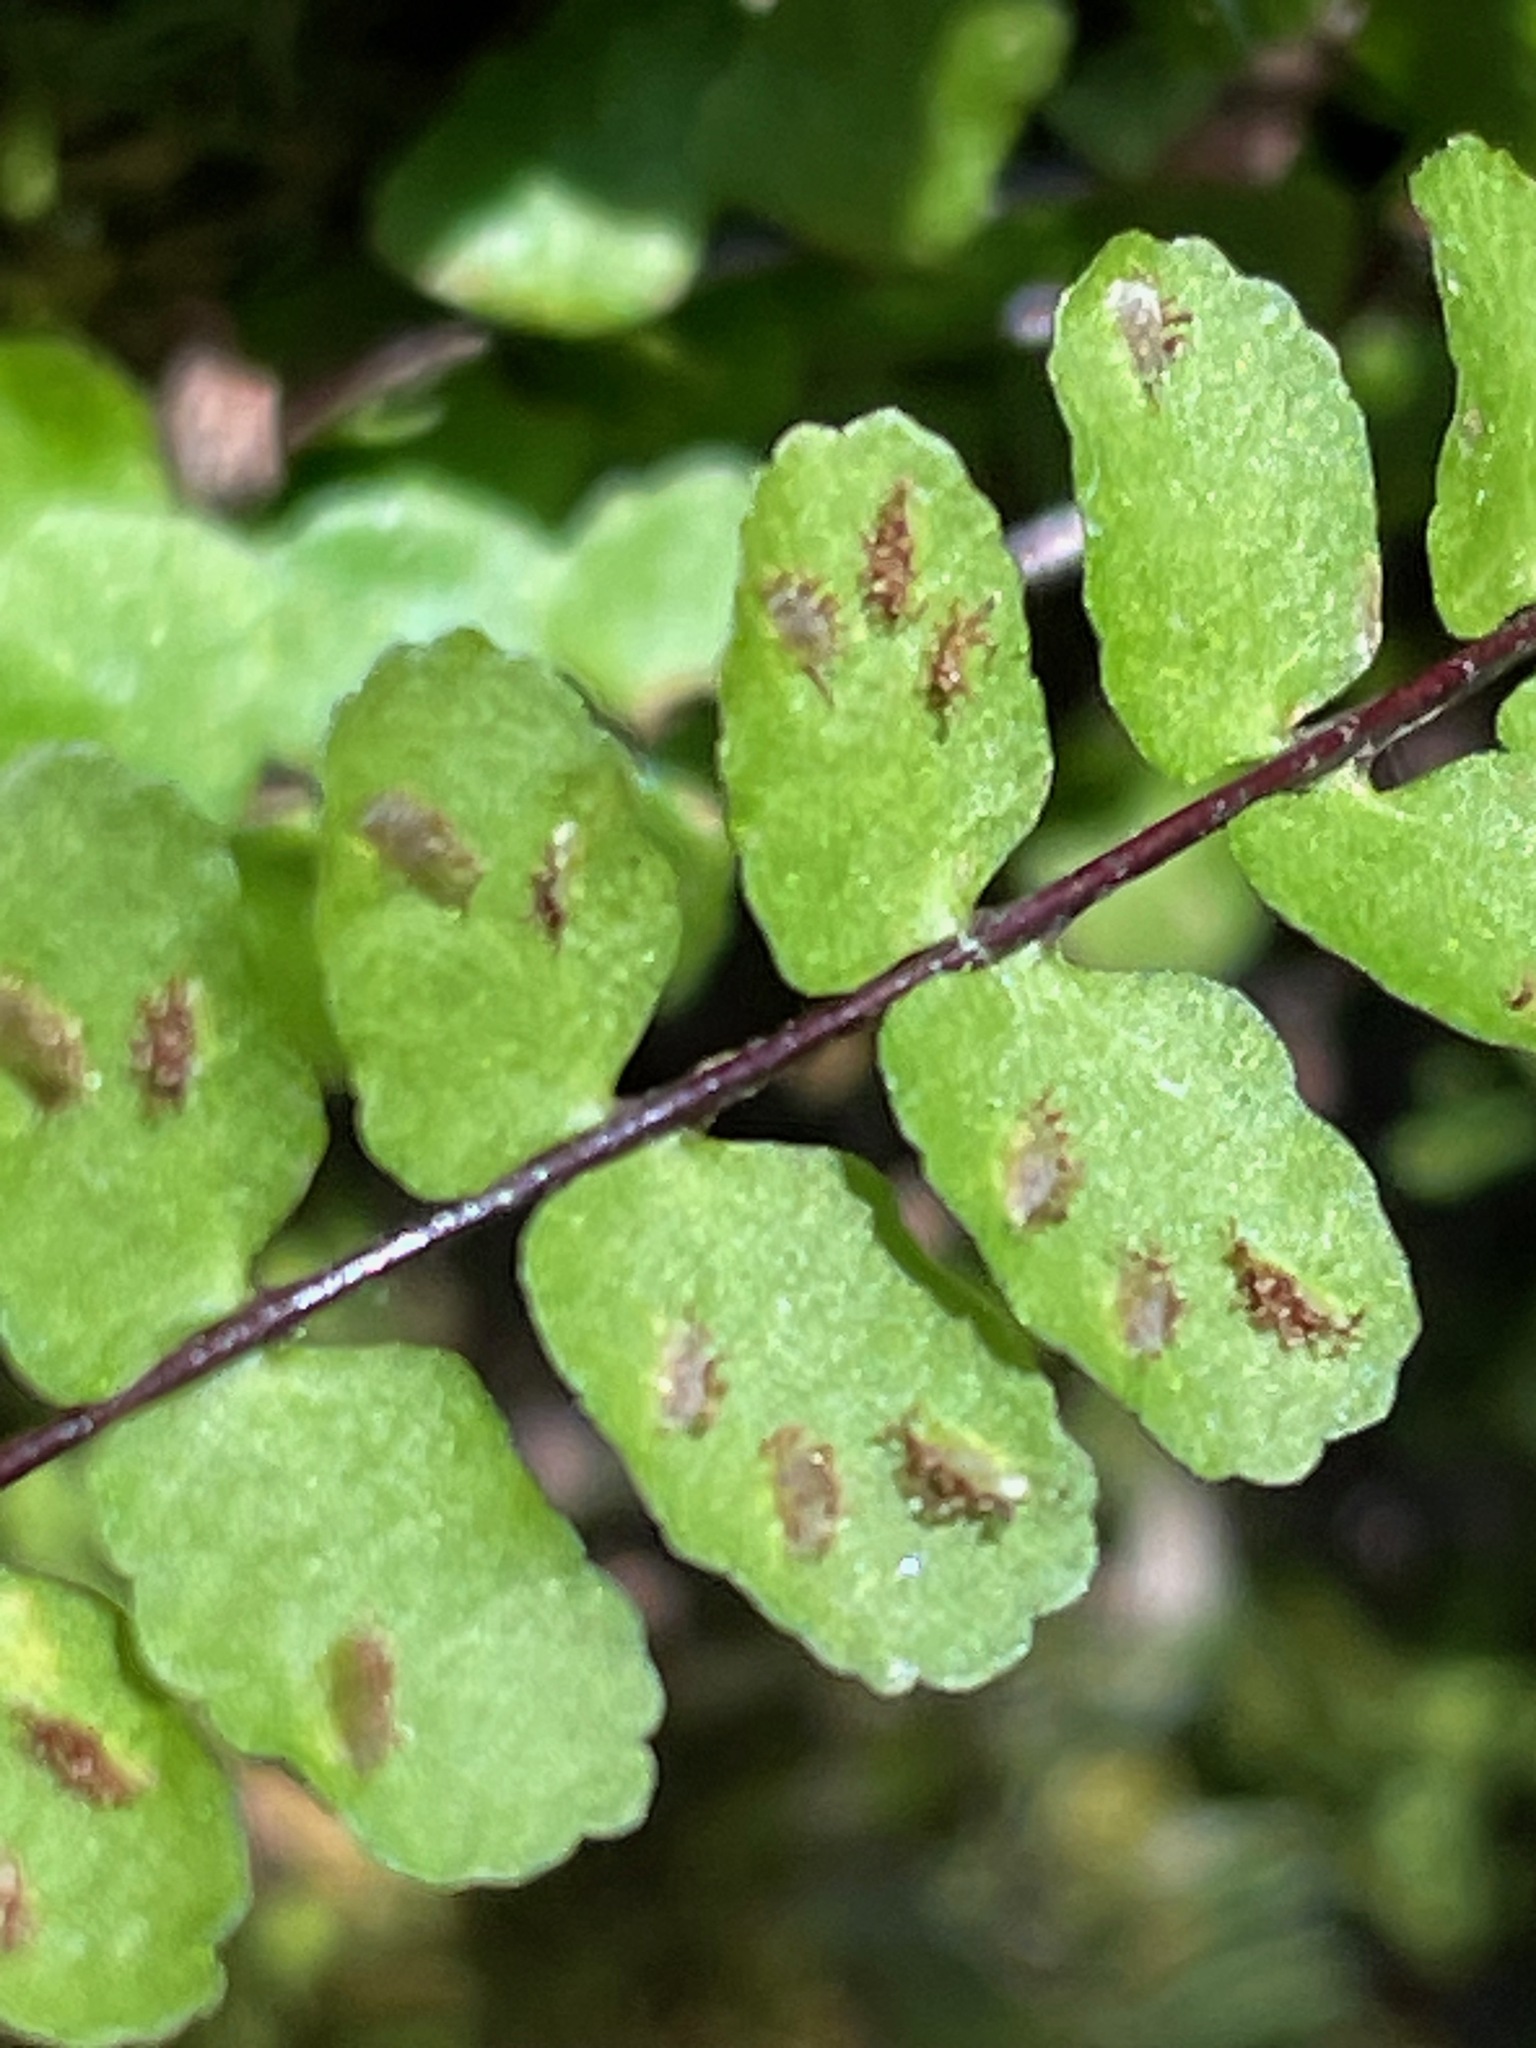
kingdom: Plantae
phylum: Tracheophyta
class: Polypodiopsida
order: Polypodiales
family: Aspleniaceae
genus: Asplenium
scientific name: Asplenium trichomanes
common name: Maidenhair spleenwort
